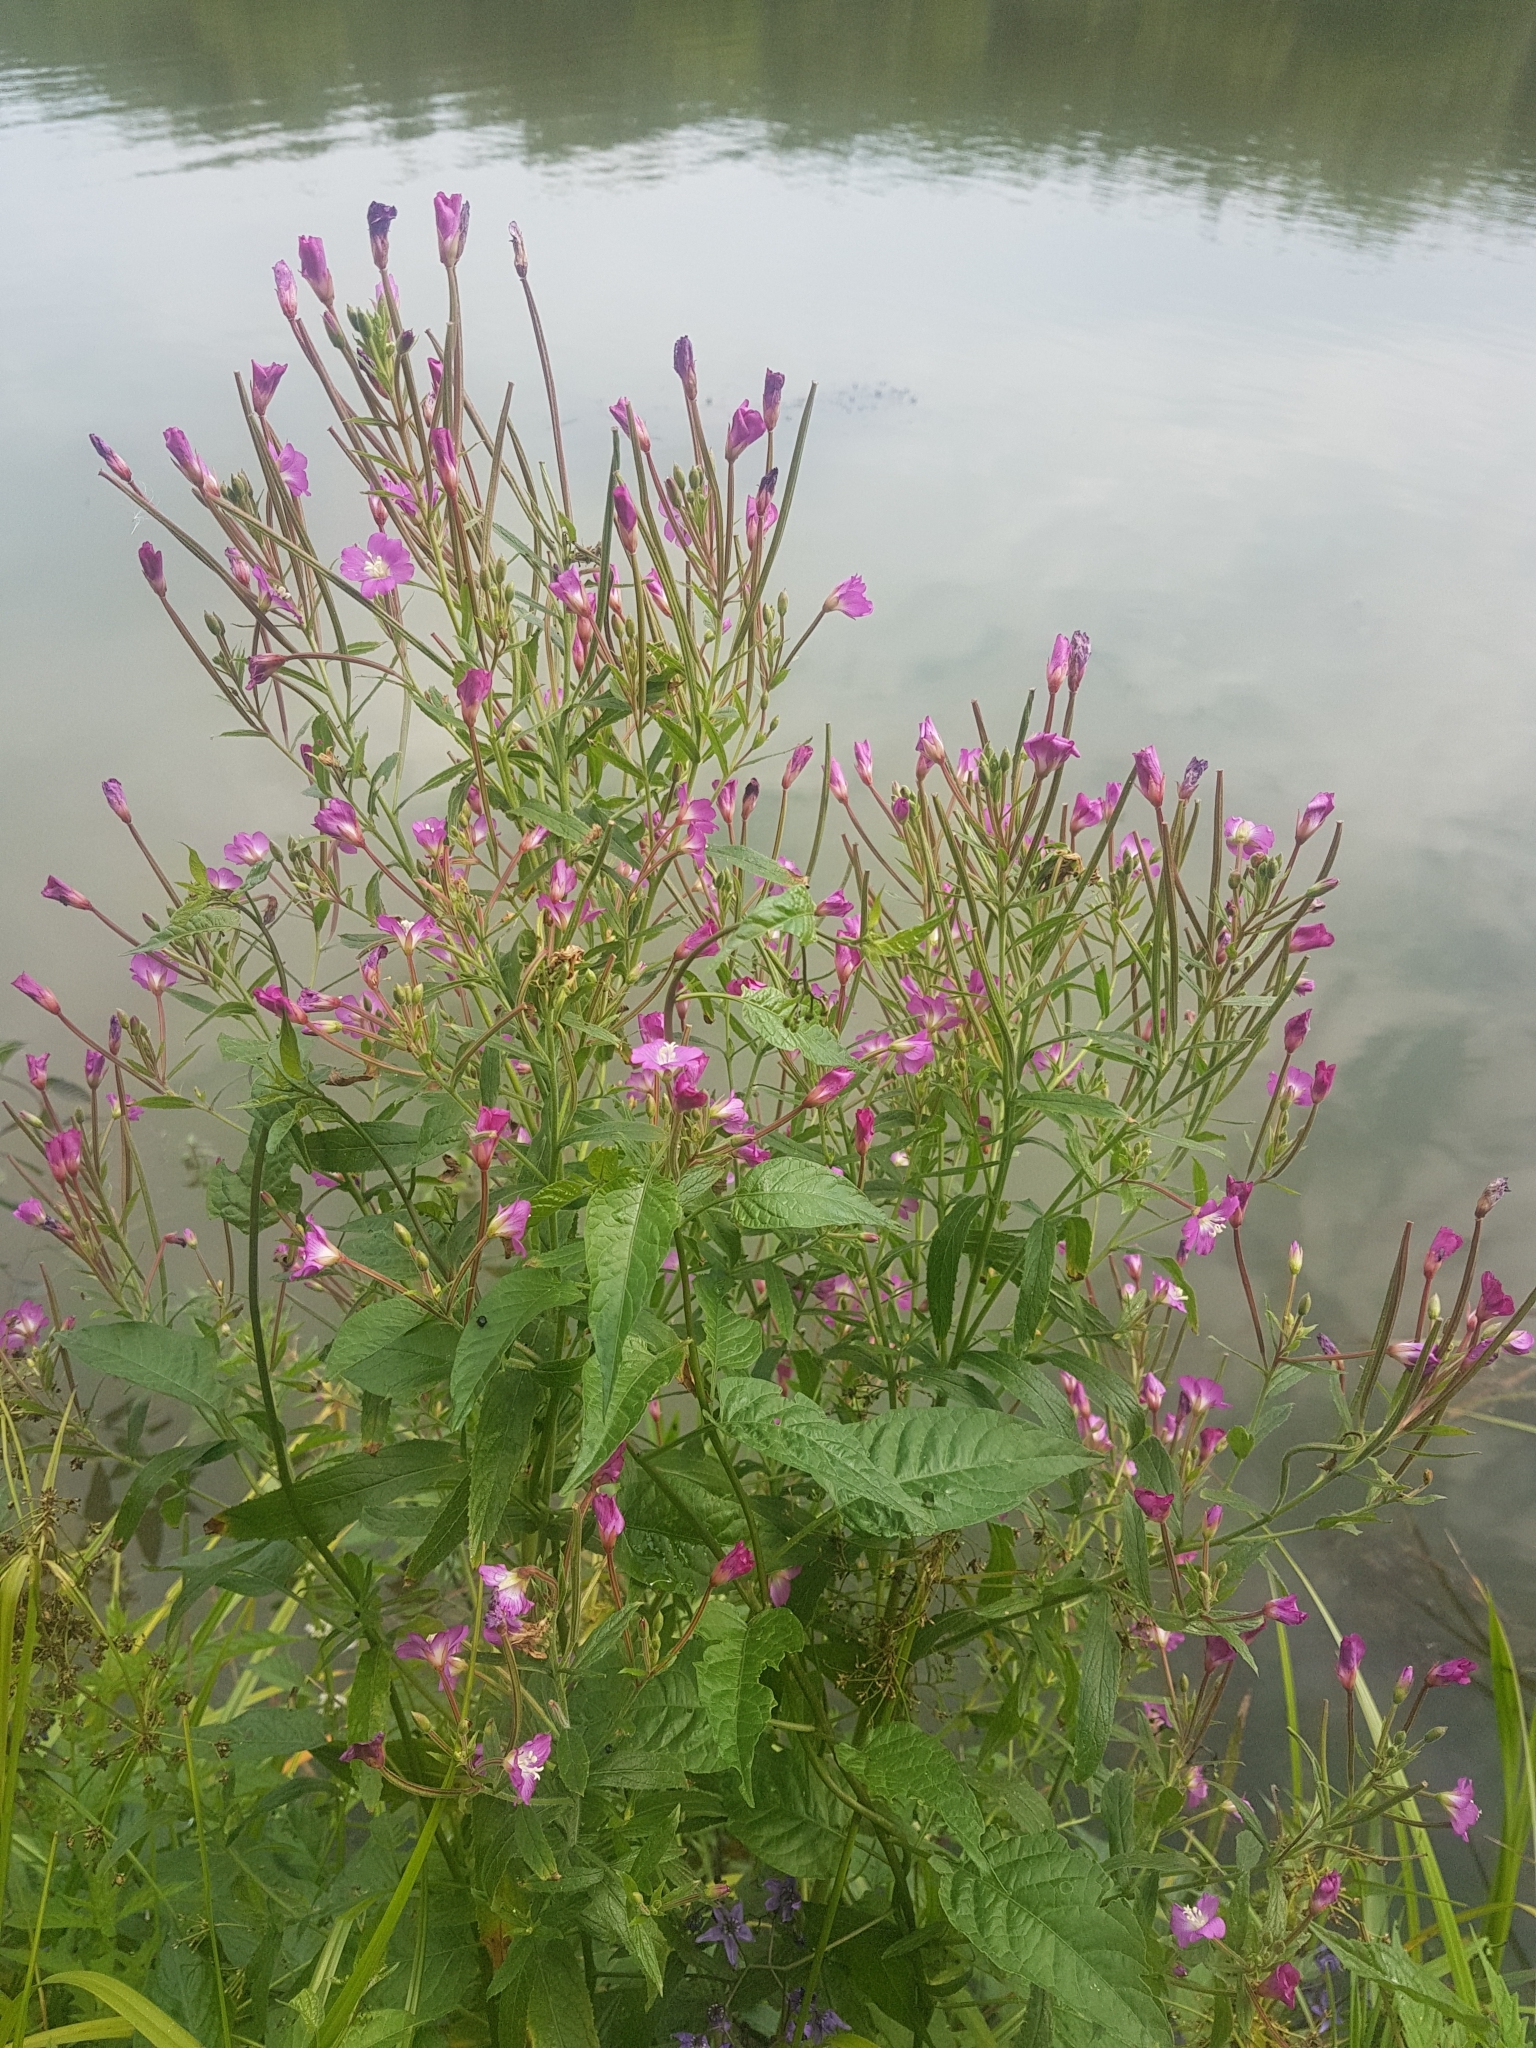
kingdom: Plantae
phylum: Tracheophyta
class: Magnoliopsida
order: Myrtales
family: Onagraceae
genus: Epilobium
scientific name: Epilobium hirsutum
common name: Great willowherb
